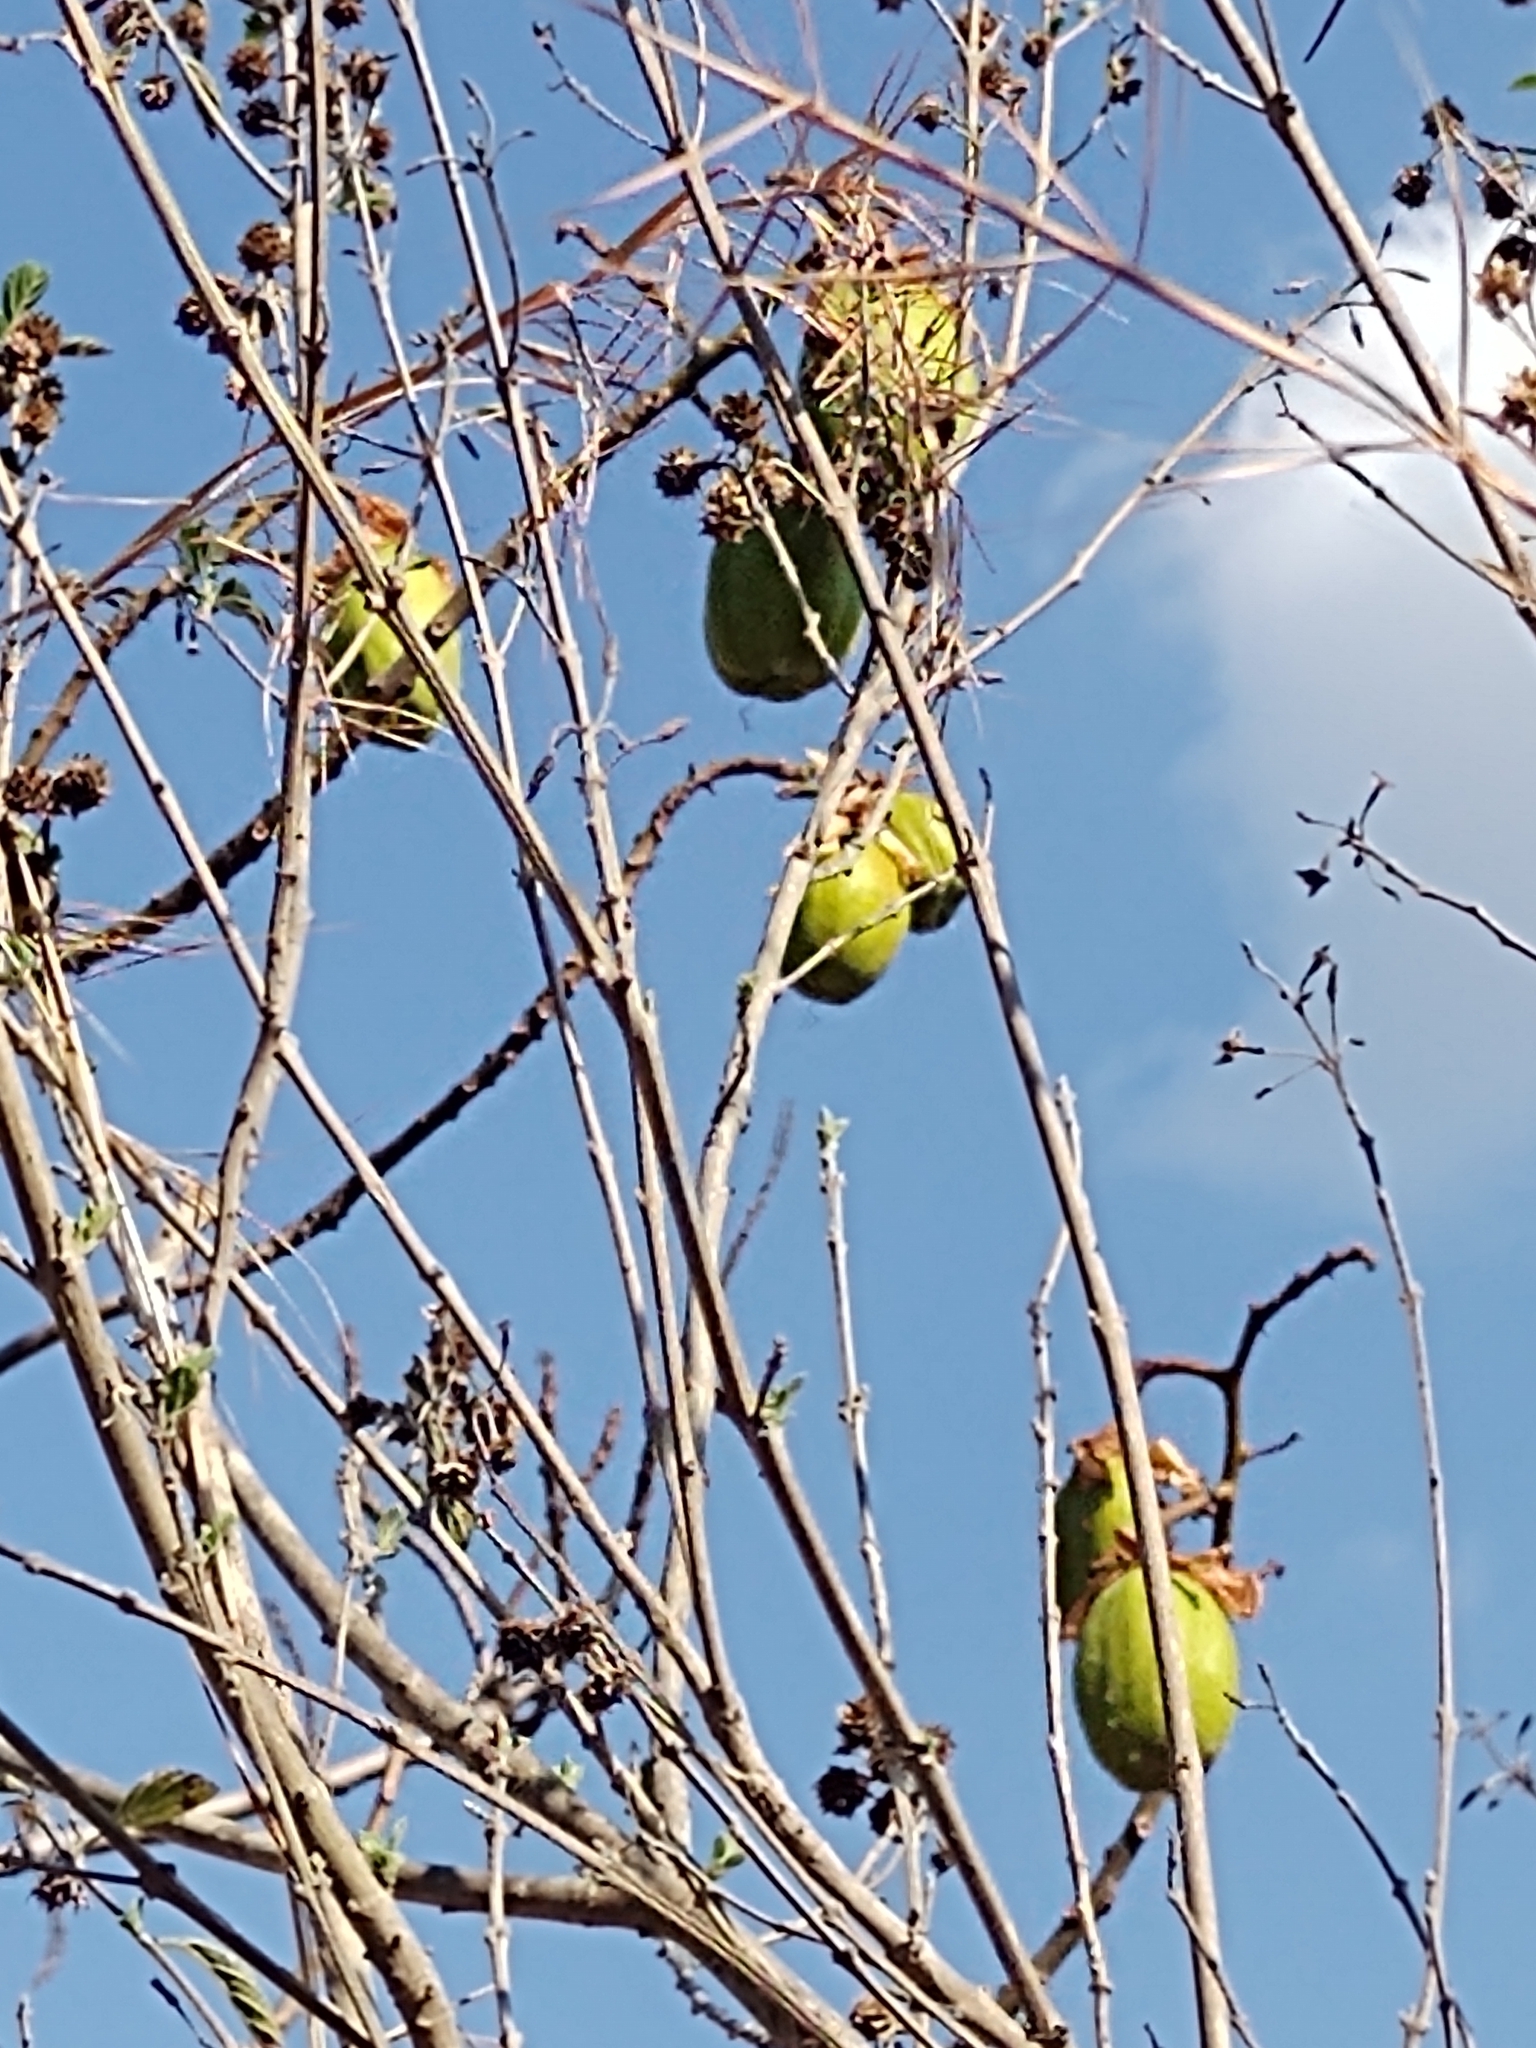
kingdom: Plantae
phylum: Tracheophyta
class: Magnoliopsida
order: Malvales
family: Cochlospermaceae
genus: Cochlospermum
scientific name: Cochlospermum vitifolium
